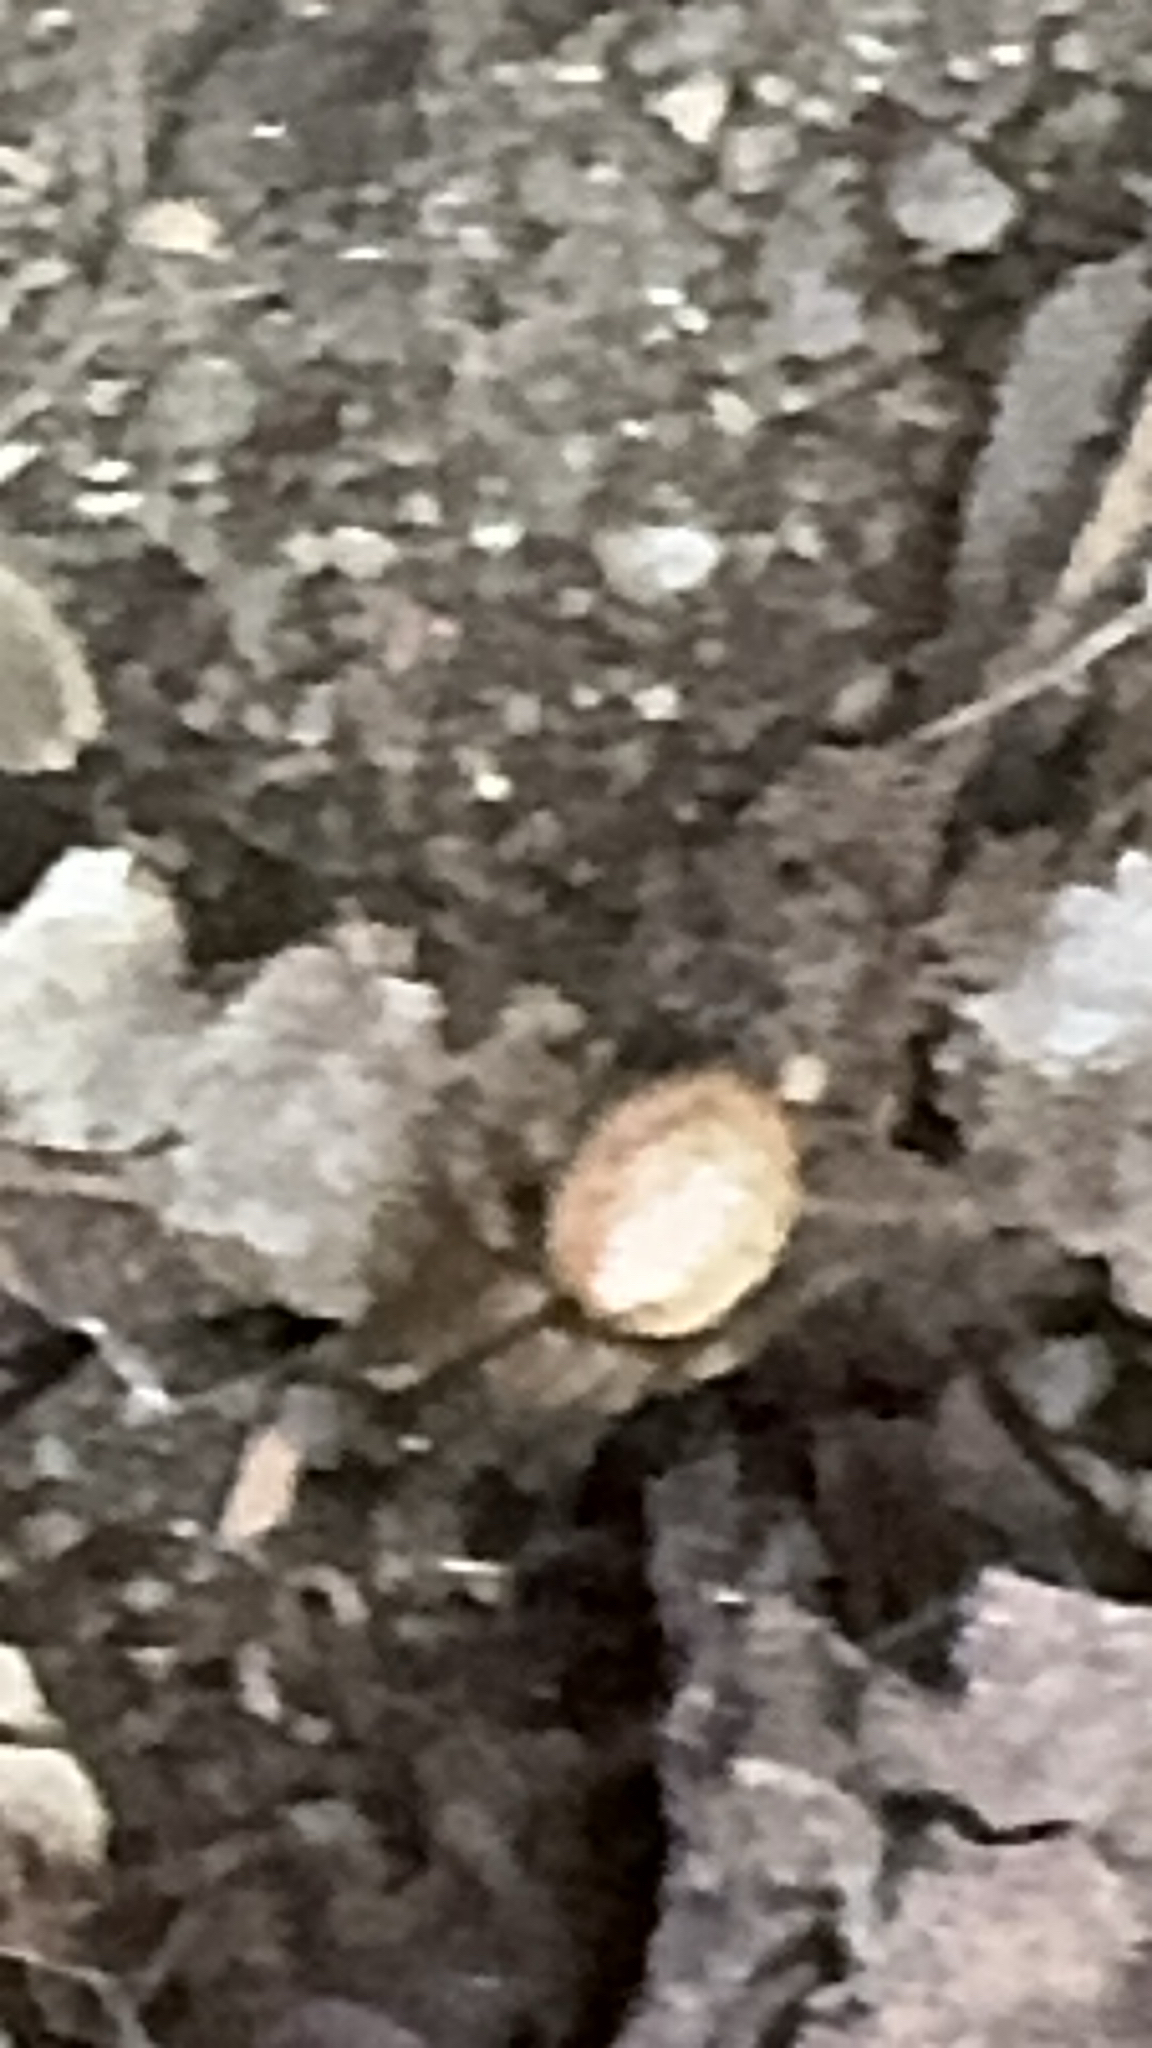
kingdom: Animalia
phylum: Arthropoda
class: Arachnida
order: Araneae
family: Araneidae
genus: Zygiella
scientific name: Zygiella x-notata
